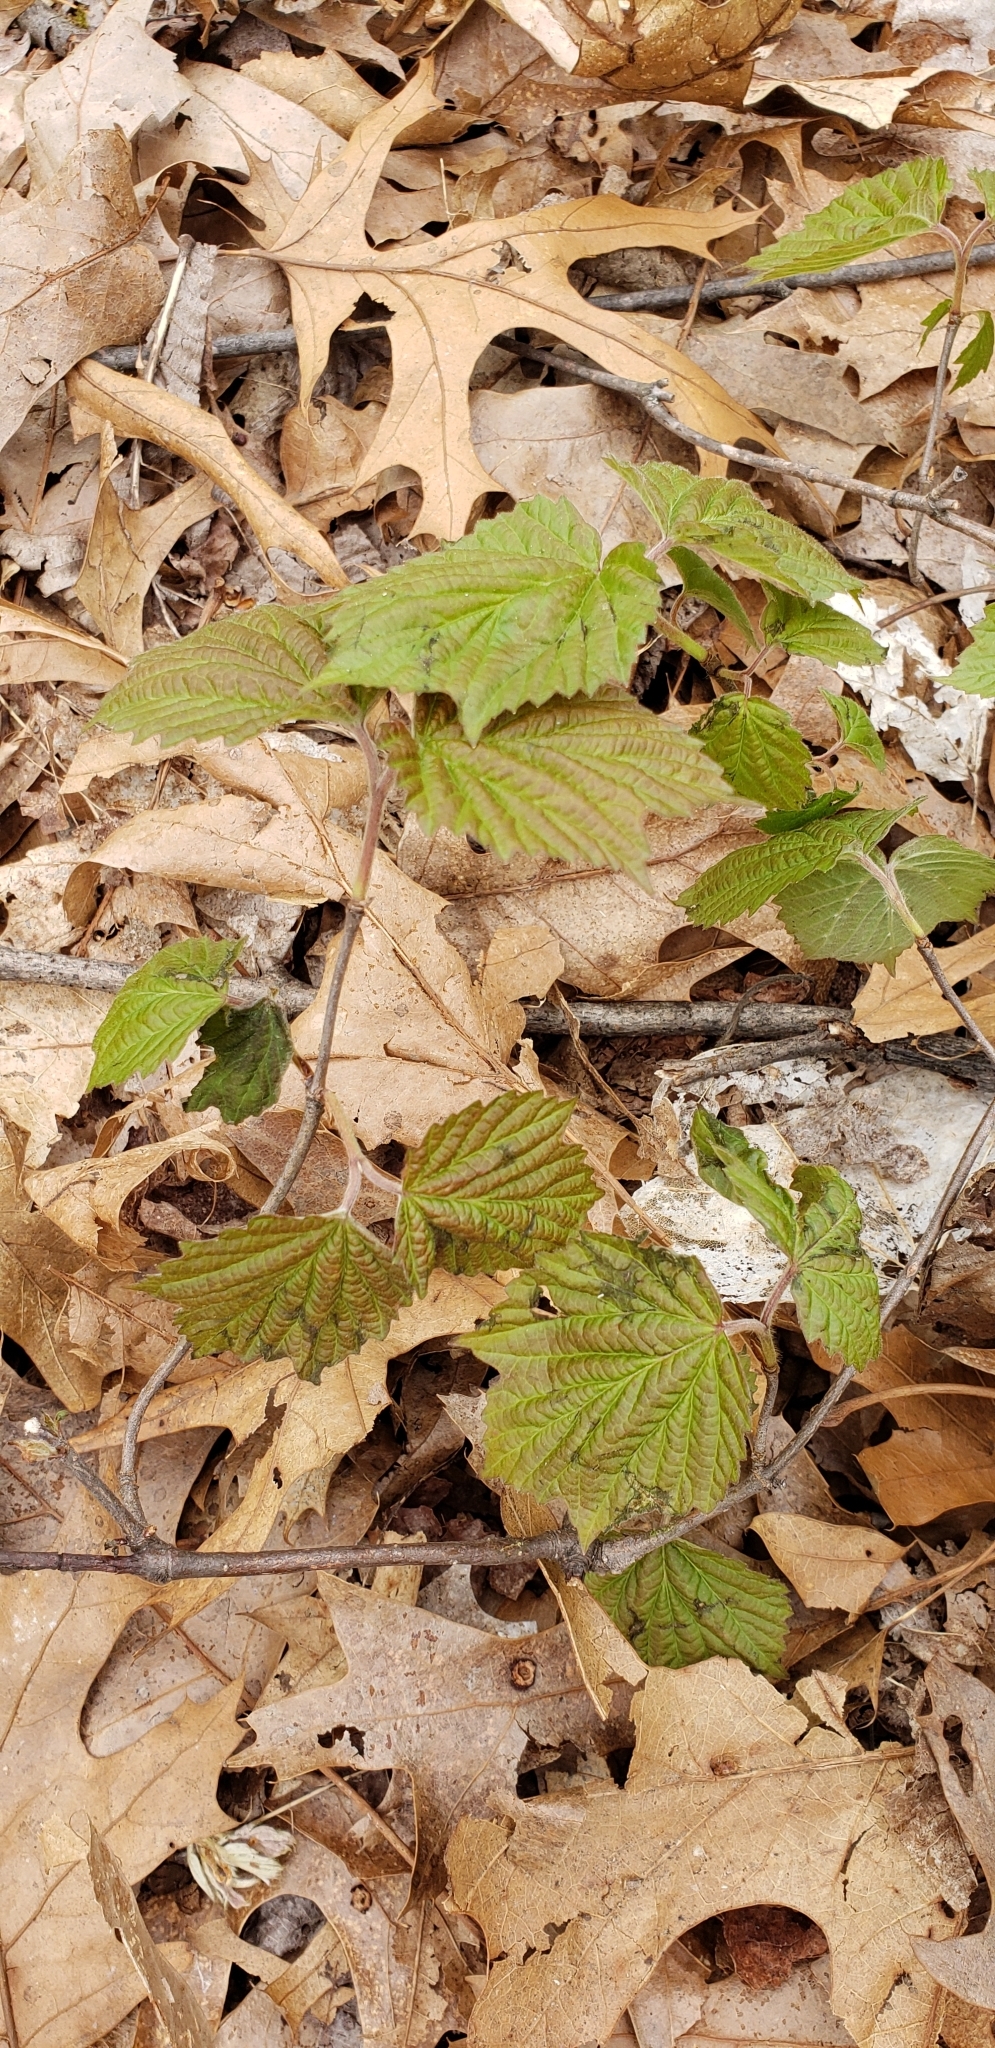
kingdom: Plantae
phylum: Tracheophyta
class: Magnoliopsida
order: Dipsacales
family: Viburnaceae
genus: Viburnum
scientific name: Viburnum acerifolium
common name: Dockmackie
